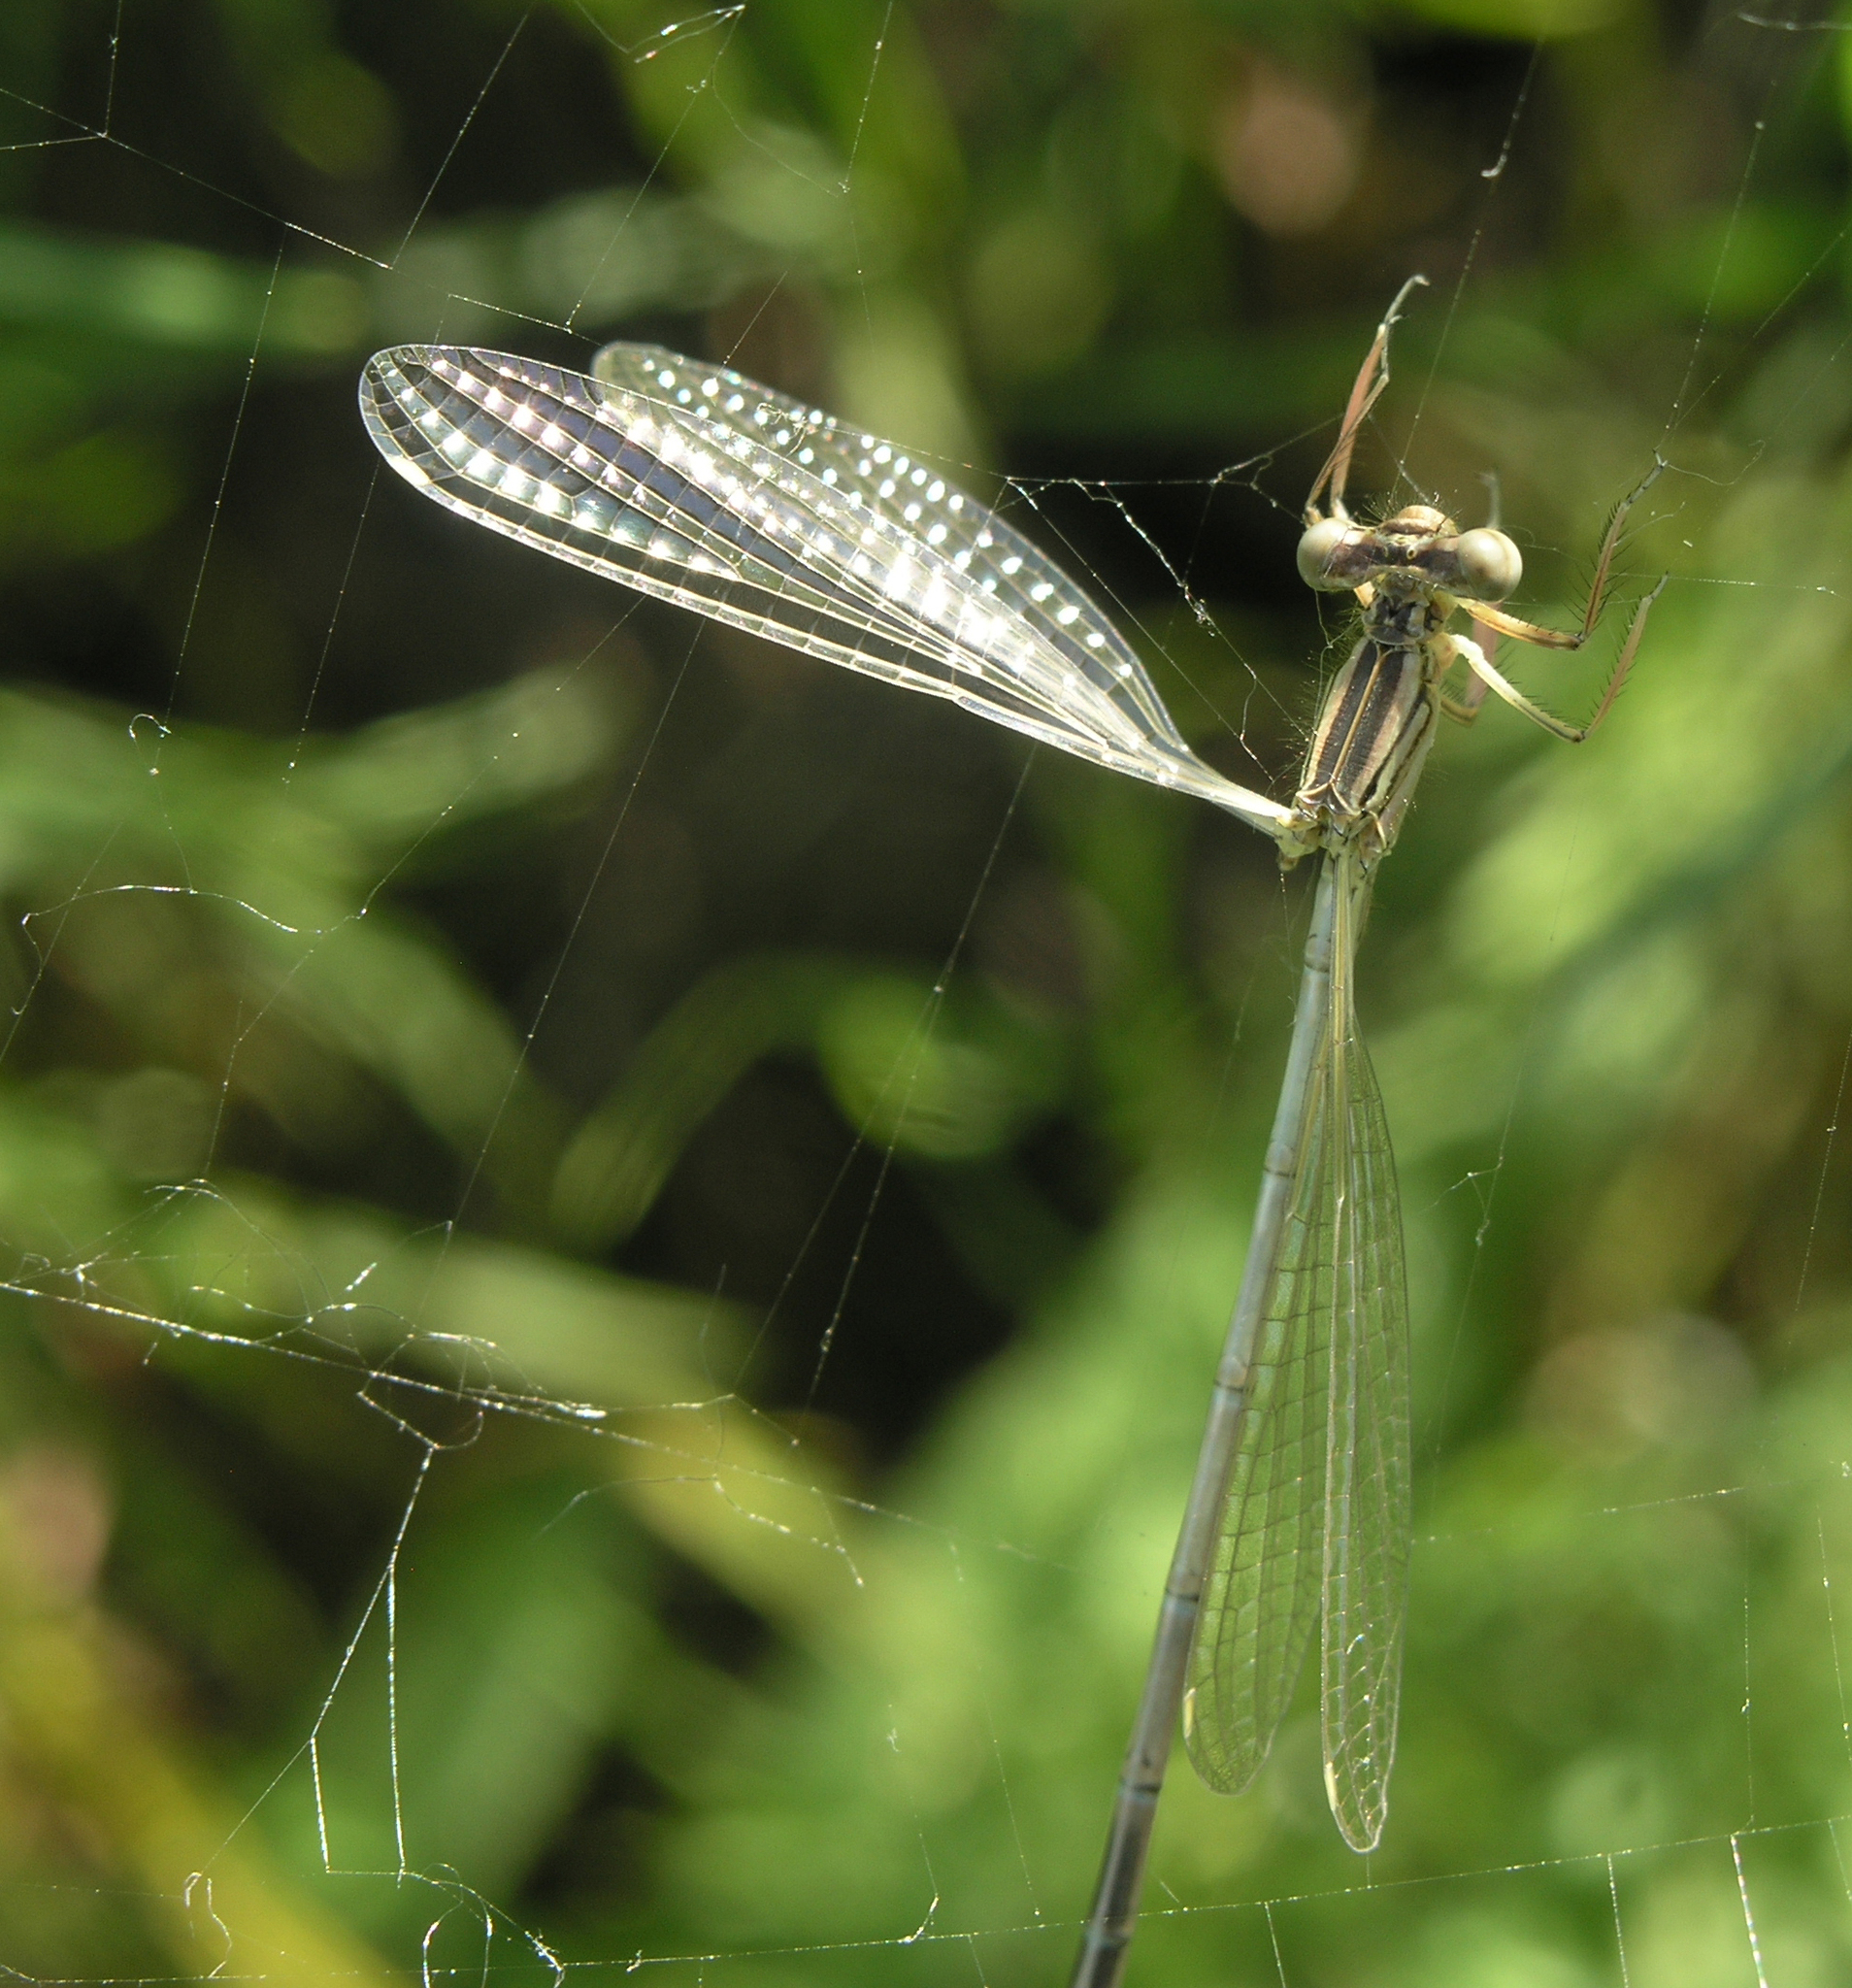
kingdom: Animalia
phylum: Arthropoda
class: Insecta
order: Odonata
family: Platycnemididae
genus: Platycnemis
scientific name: Platycnemis pennipes
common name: White-legged damselfly
